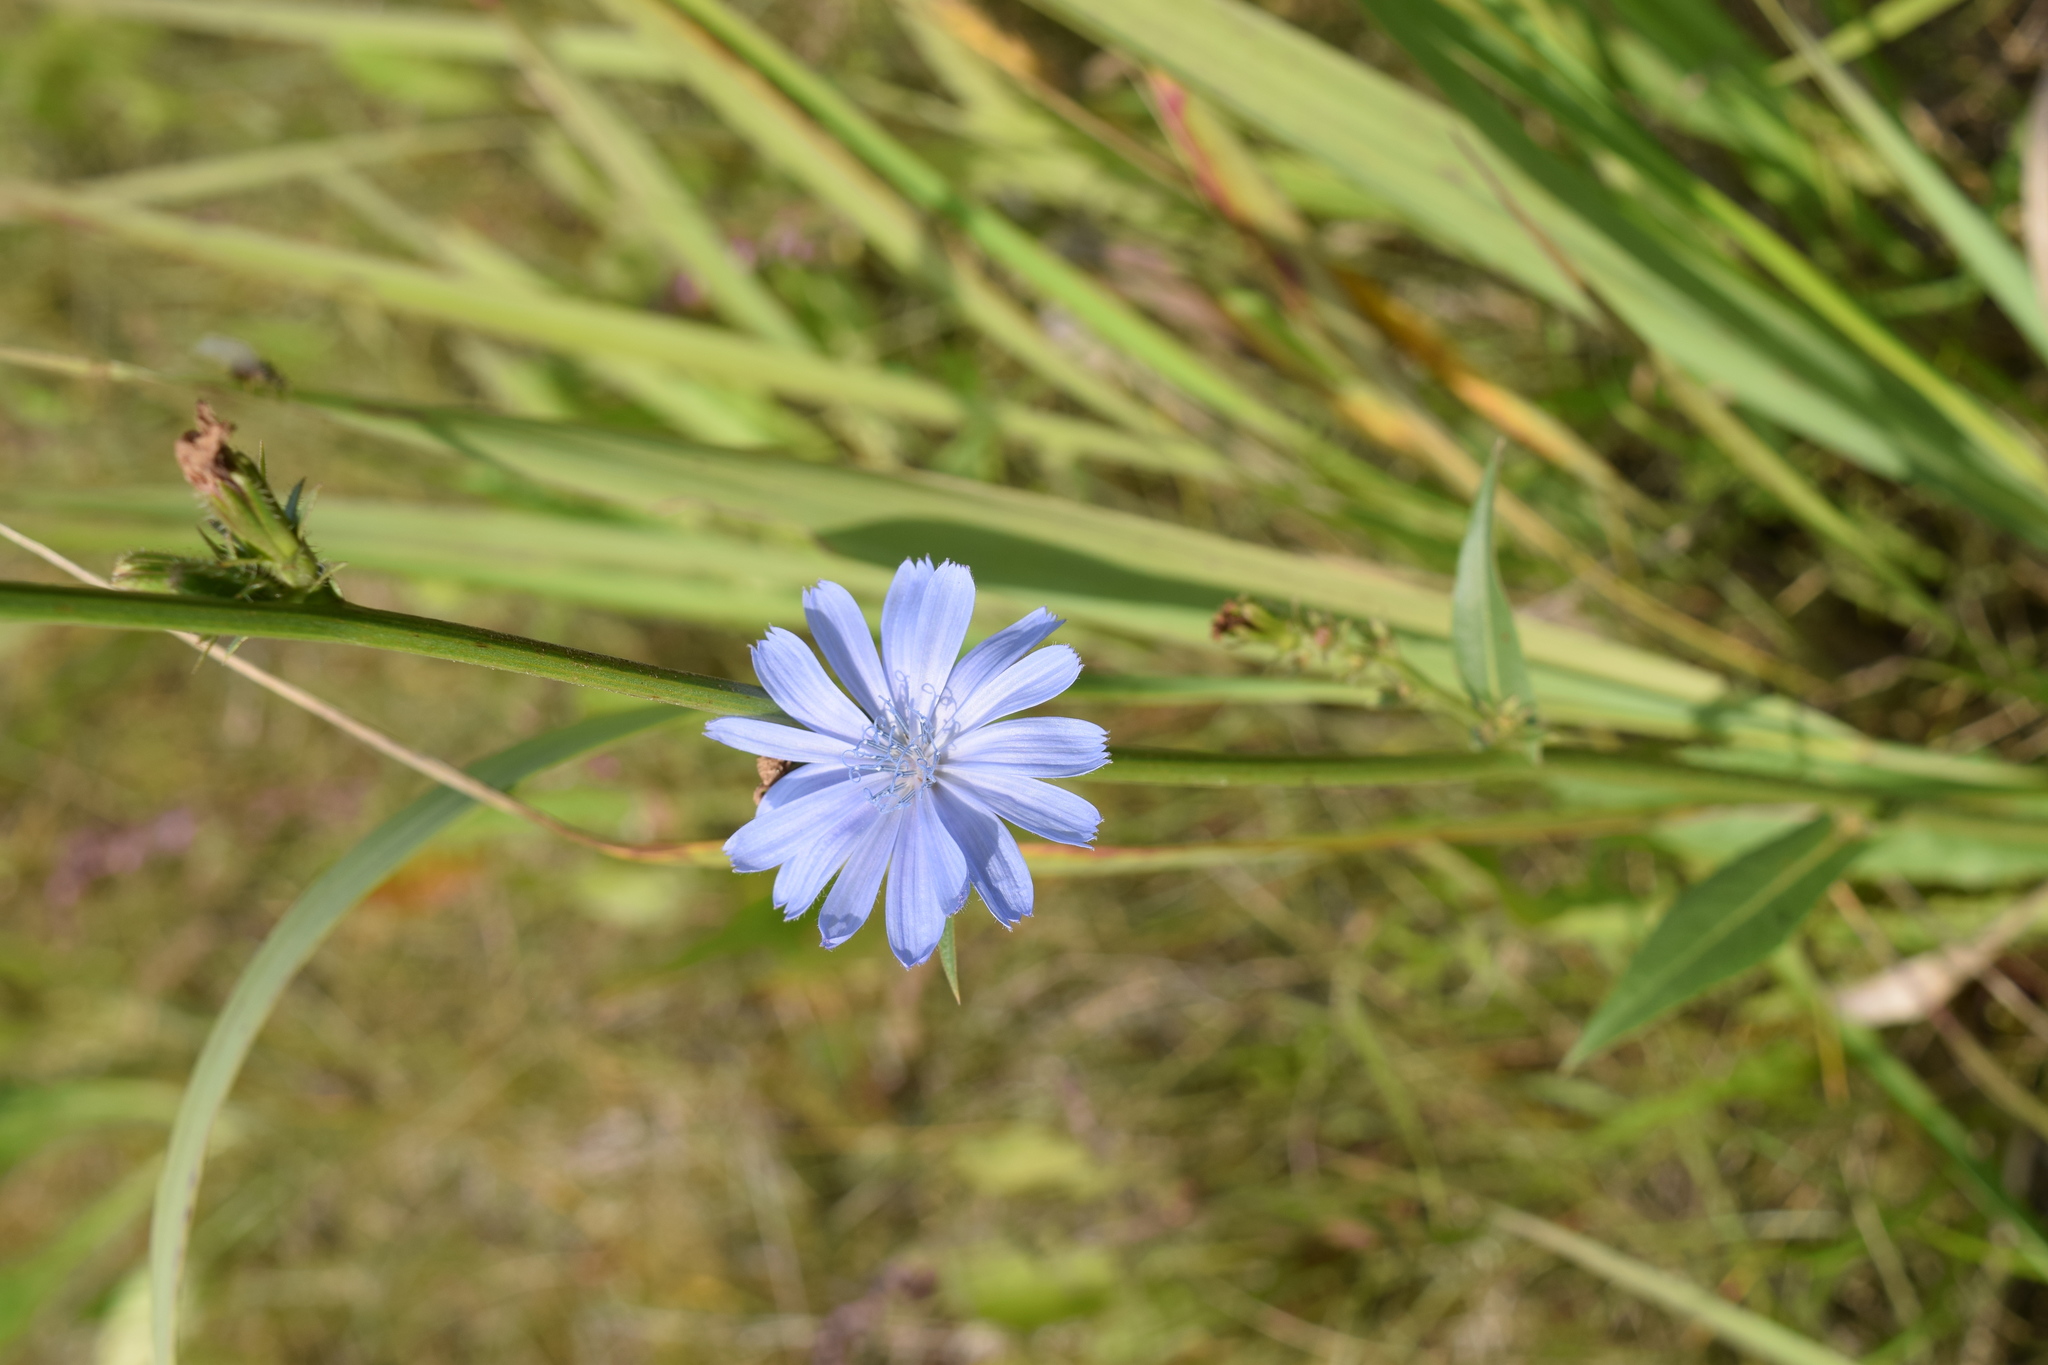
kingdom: Plantae
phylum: Tracheophyta
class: Magnoliopsida
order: Asterales
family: Asteraceae
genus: Cichorium
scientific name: Cichorium intybus
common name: Chicory
